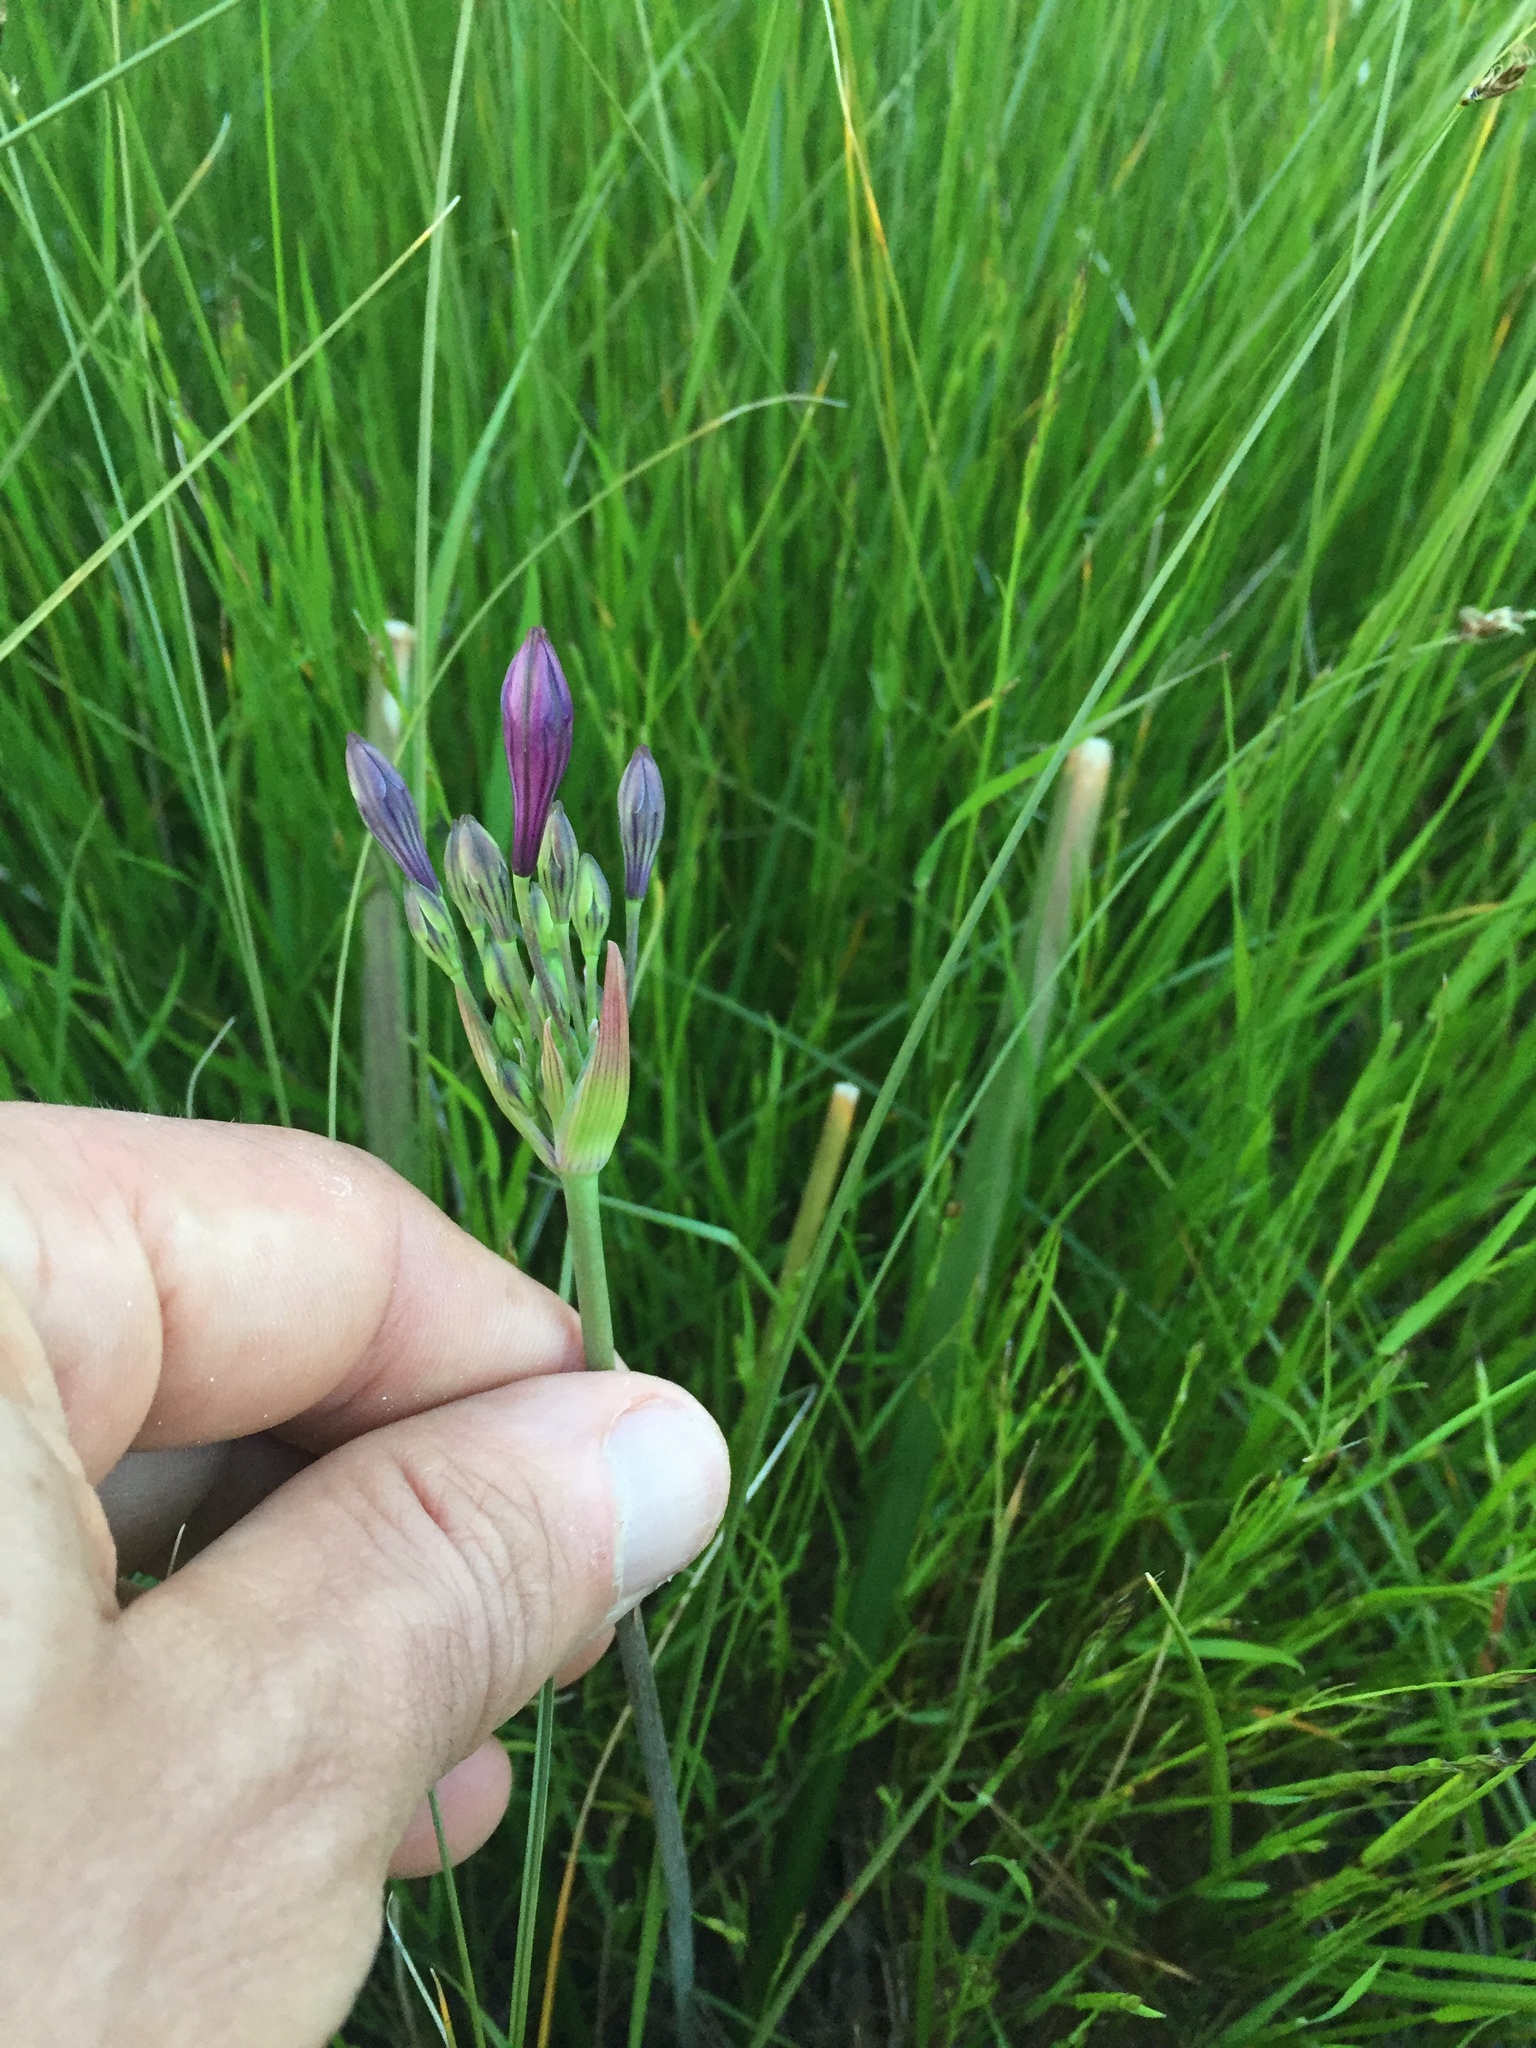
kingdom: Plantae
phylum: Tracheophyta
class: Liliopsida
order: Asparagales
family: Asparagaceae
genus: Triteleia
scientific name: Triteleia laxa
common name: Triplet-lily
